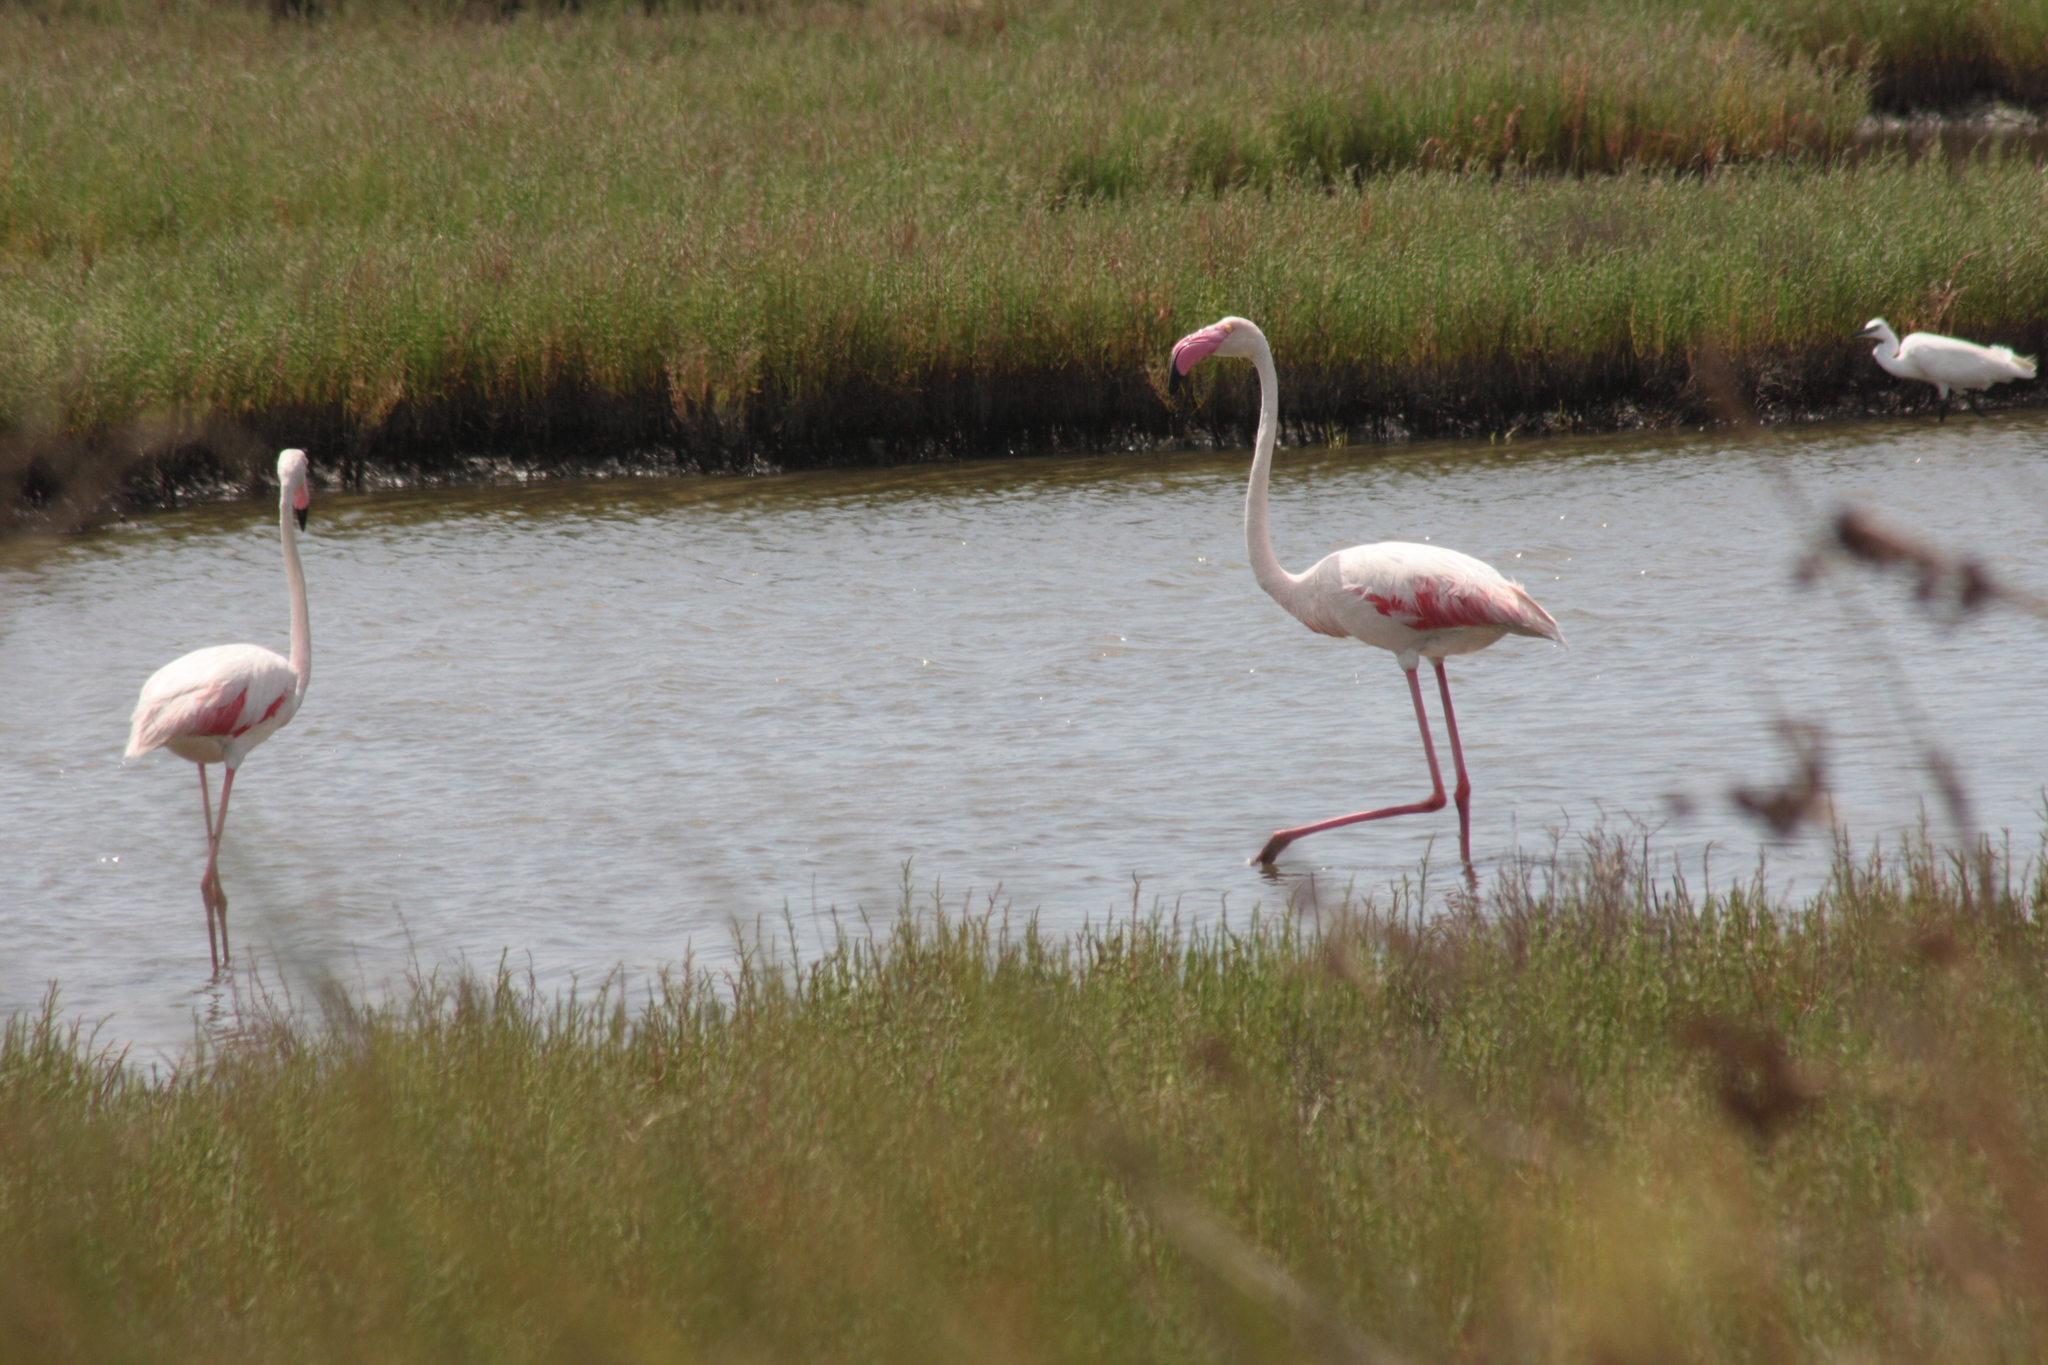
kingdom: Animalia
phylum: Chordata
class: Aves
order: Phoenicopteriformes
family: Phoenicopteridae
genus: Phoenicopterus
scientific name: Phoenicopterus roseus
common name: Greater flamingo
